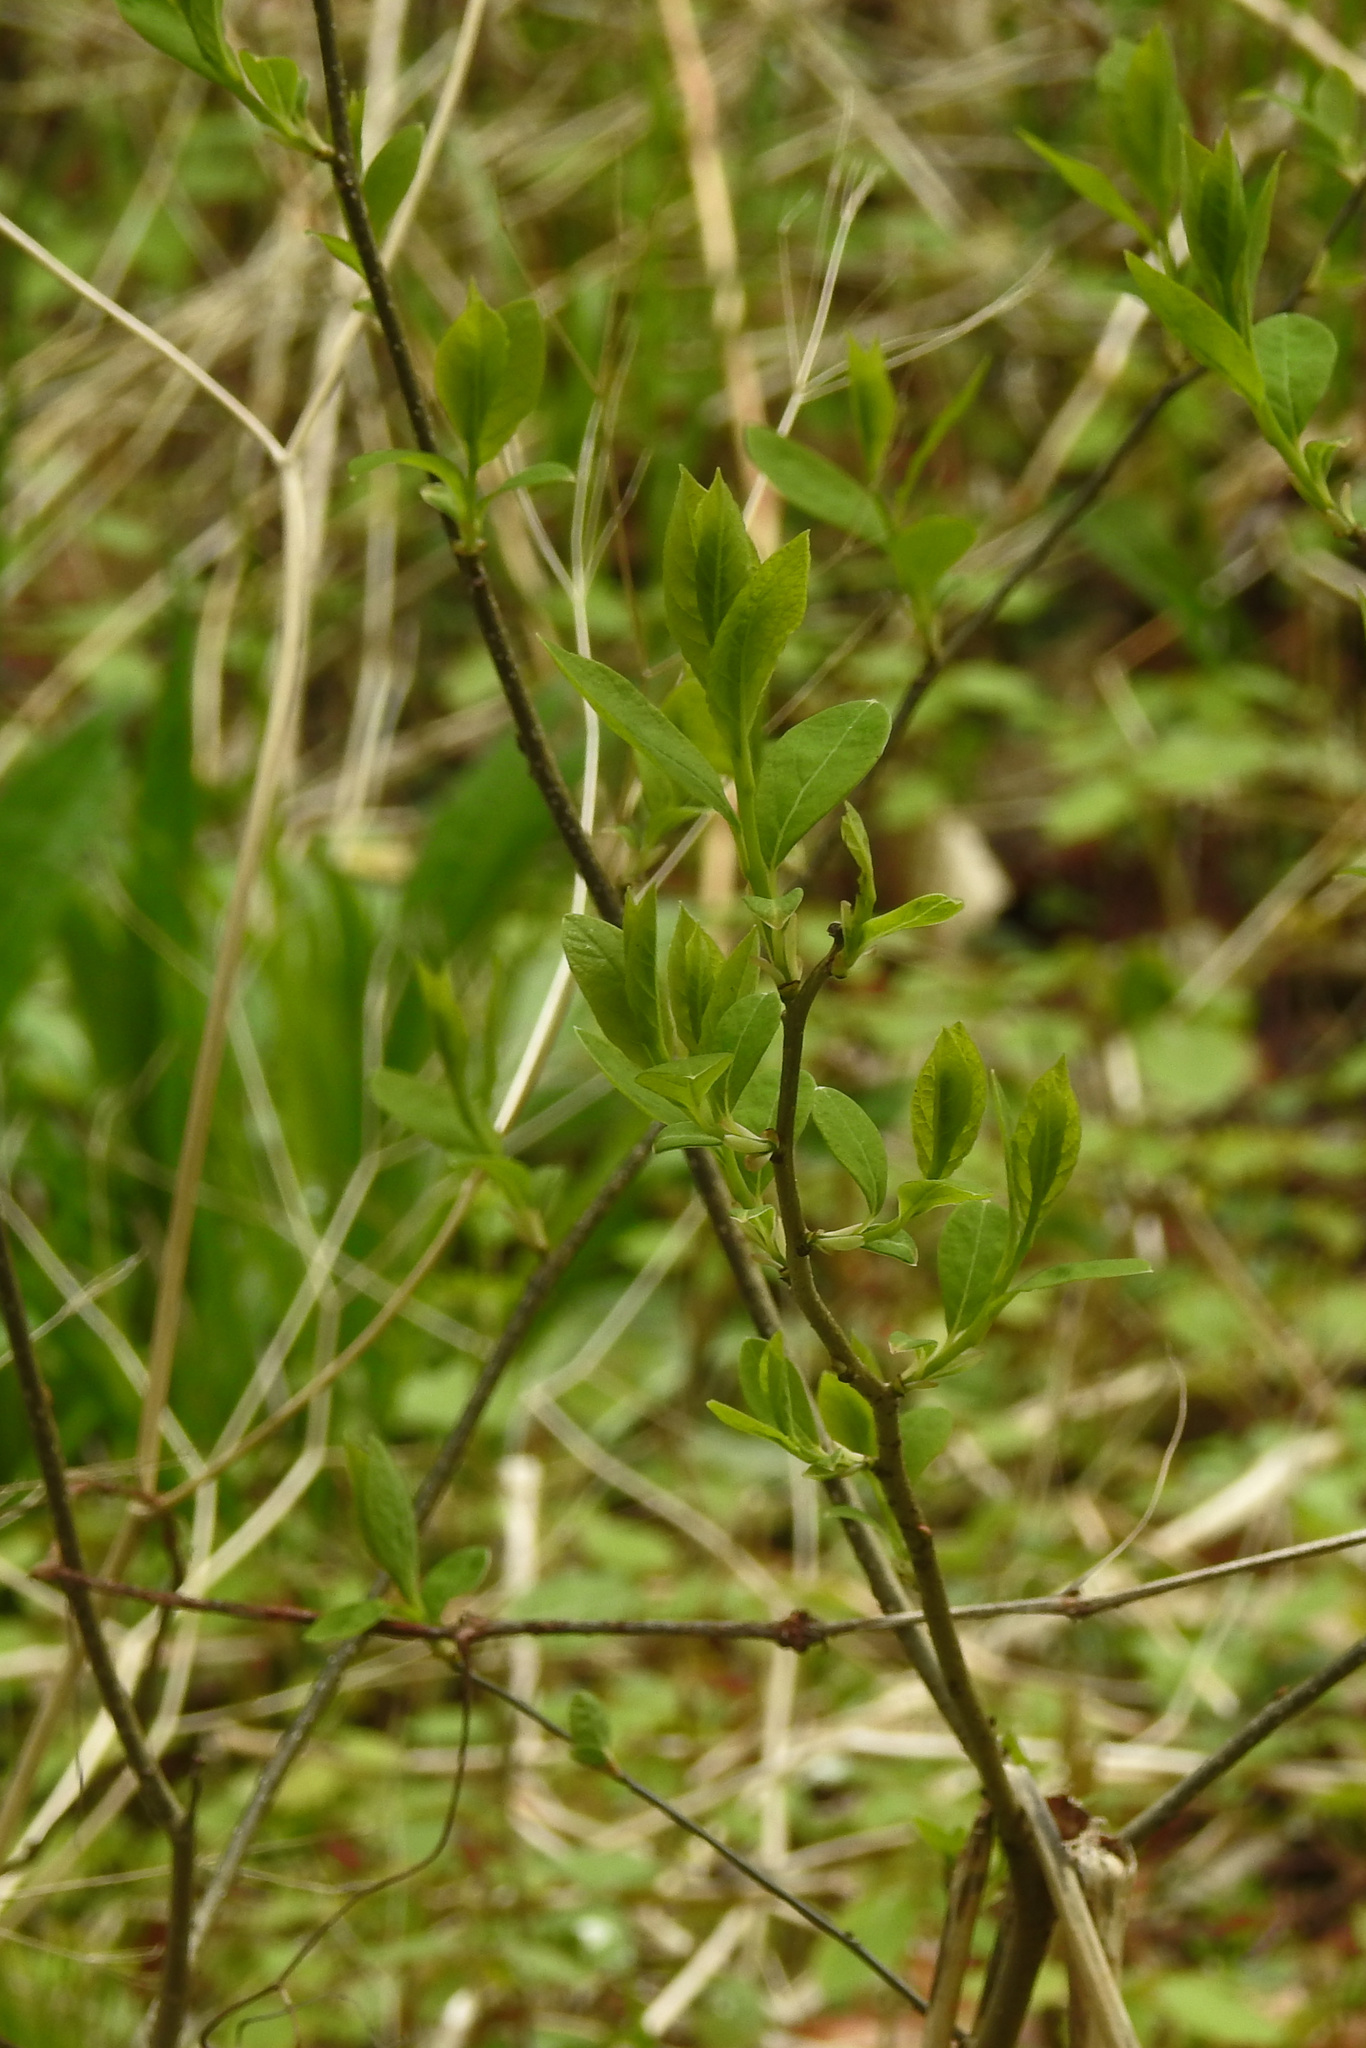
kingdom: Plantae
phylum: Tracheophyta
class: Magnoliopsida
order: Laurales
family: Lauraceae
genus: Lindera
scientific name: Lindera benzoin
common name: Spicebush
